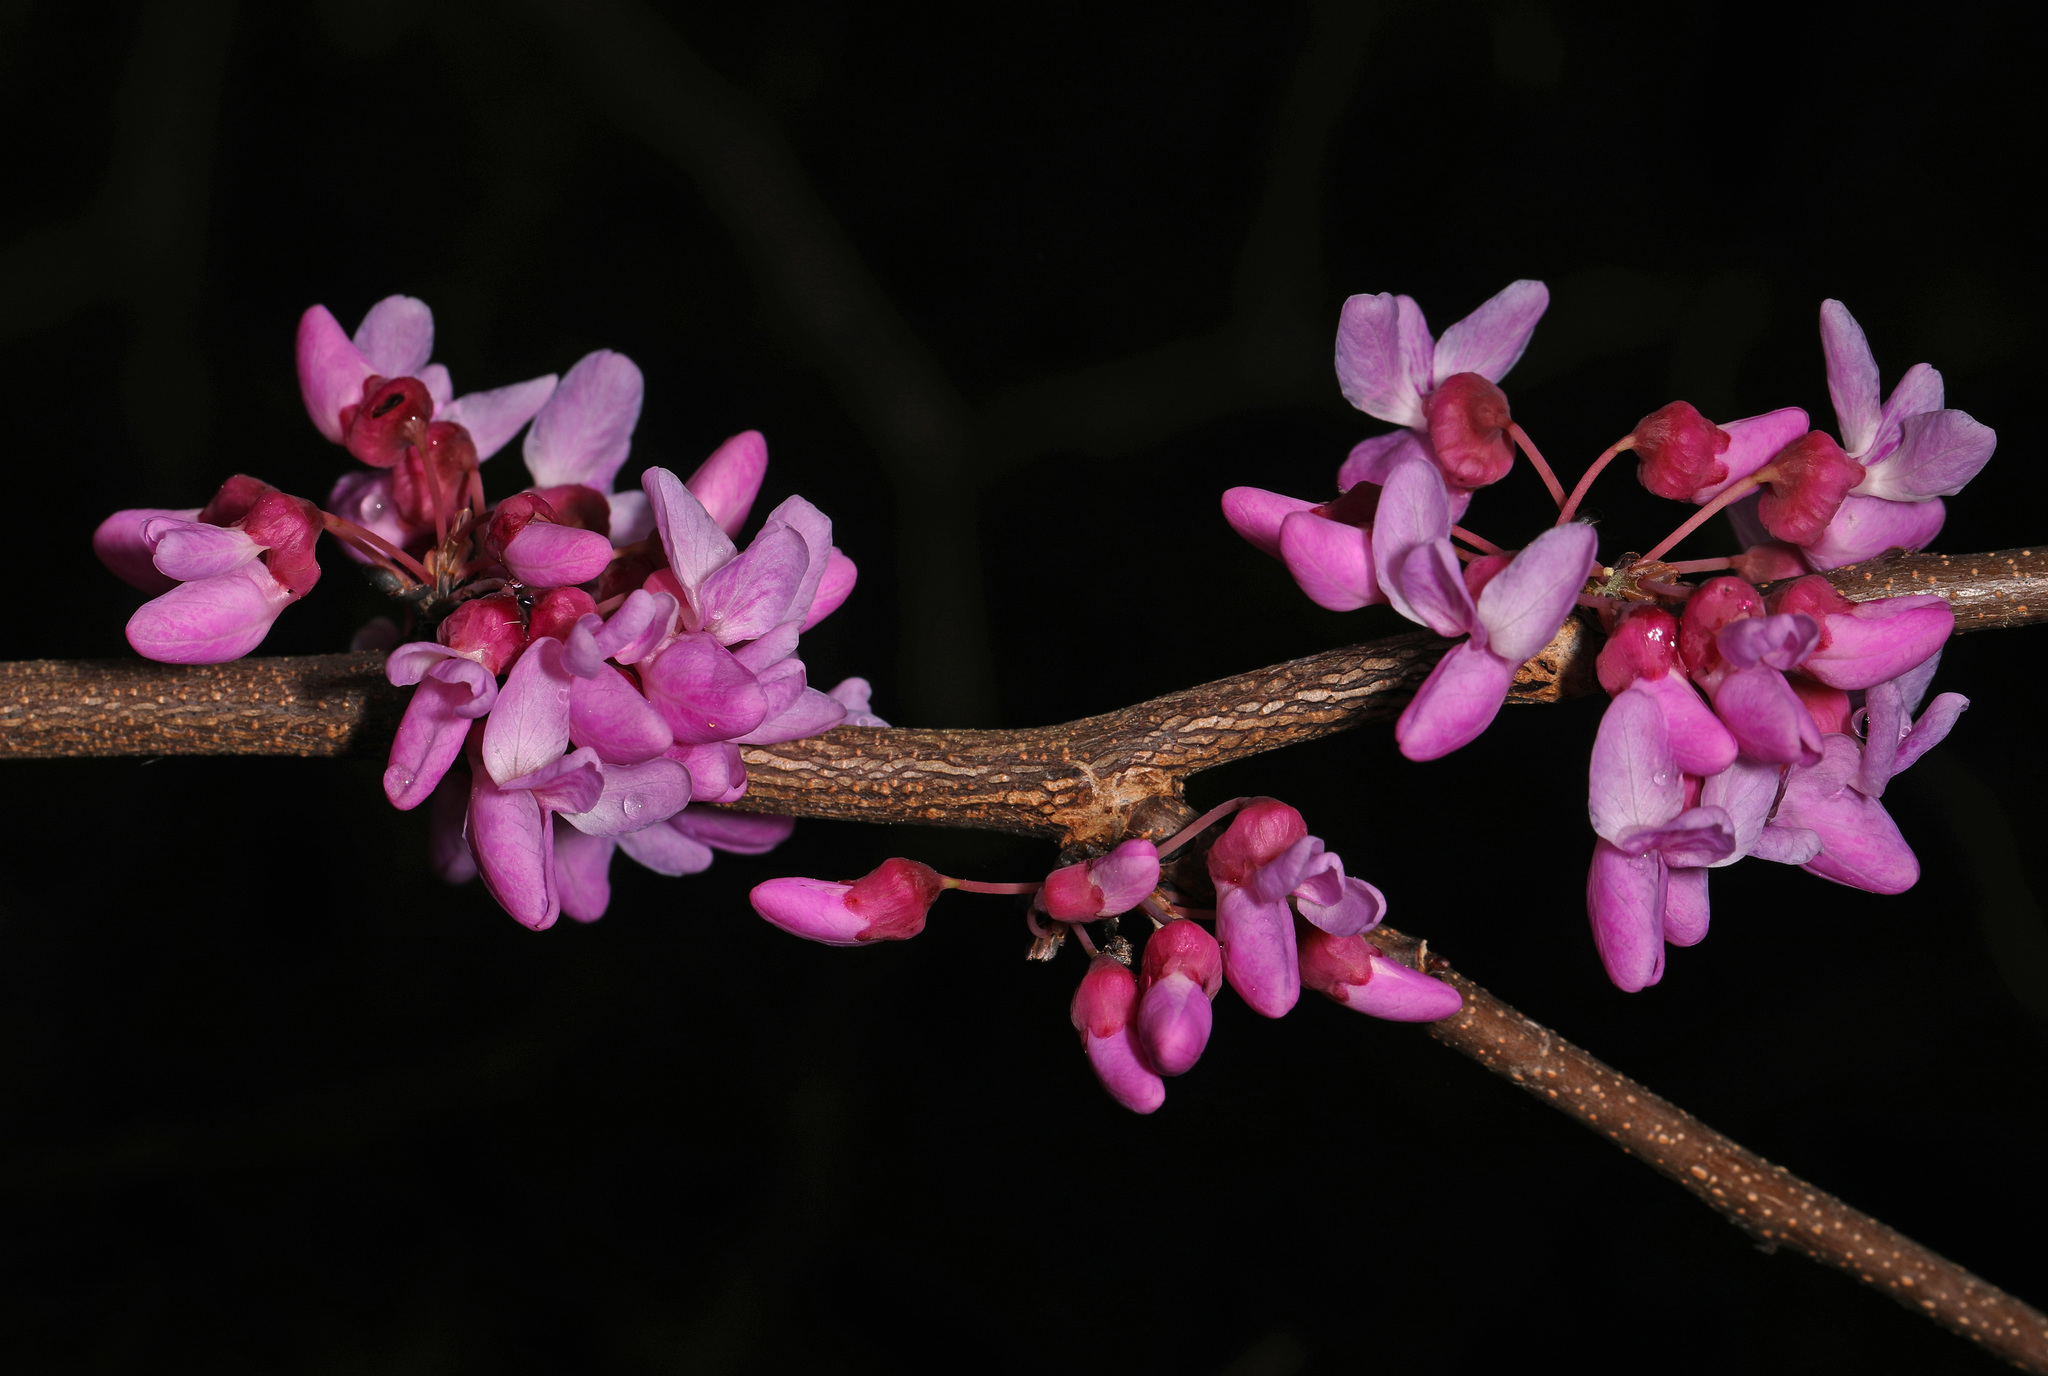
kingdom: Plantae
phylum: Tracheophyta
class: Magnoliopsida
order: Fabales
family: Fabaceae
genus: Cercis
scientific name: Cercis canadensis
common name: Eastern redbud
